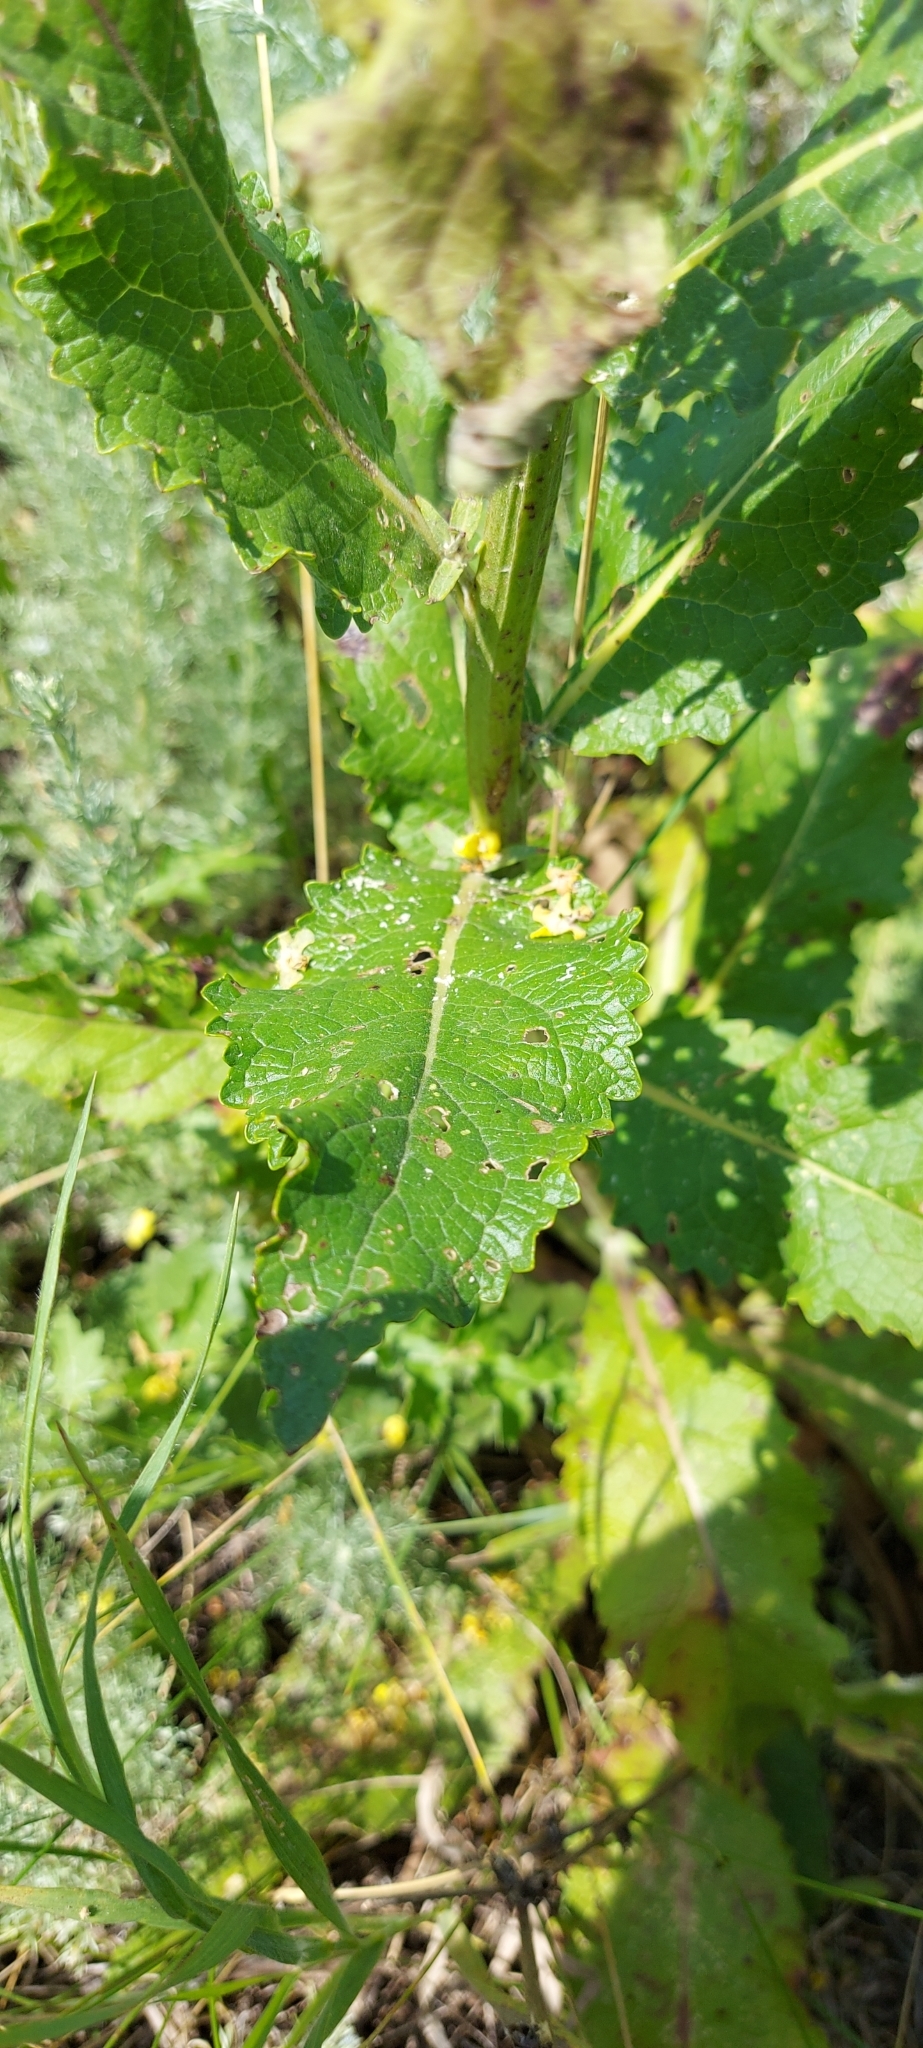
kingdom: Plantae
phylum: Tracheophyta
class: Magnoliopsida
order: Lamiales
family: Scrophulariaceae
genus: Verbascum
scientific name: Verbascum lychnitis
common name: White mullein
